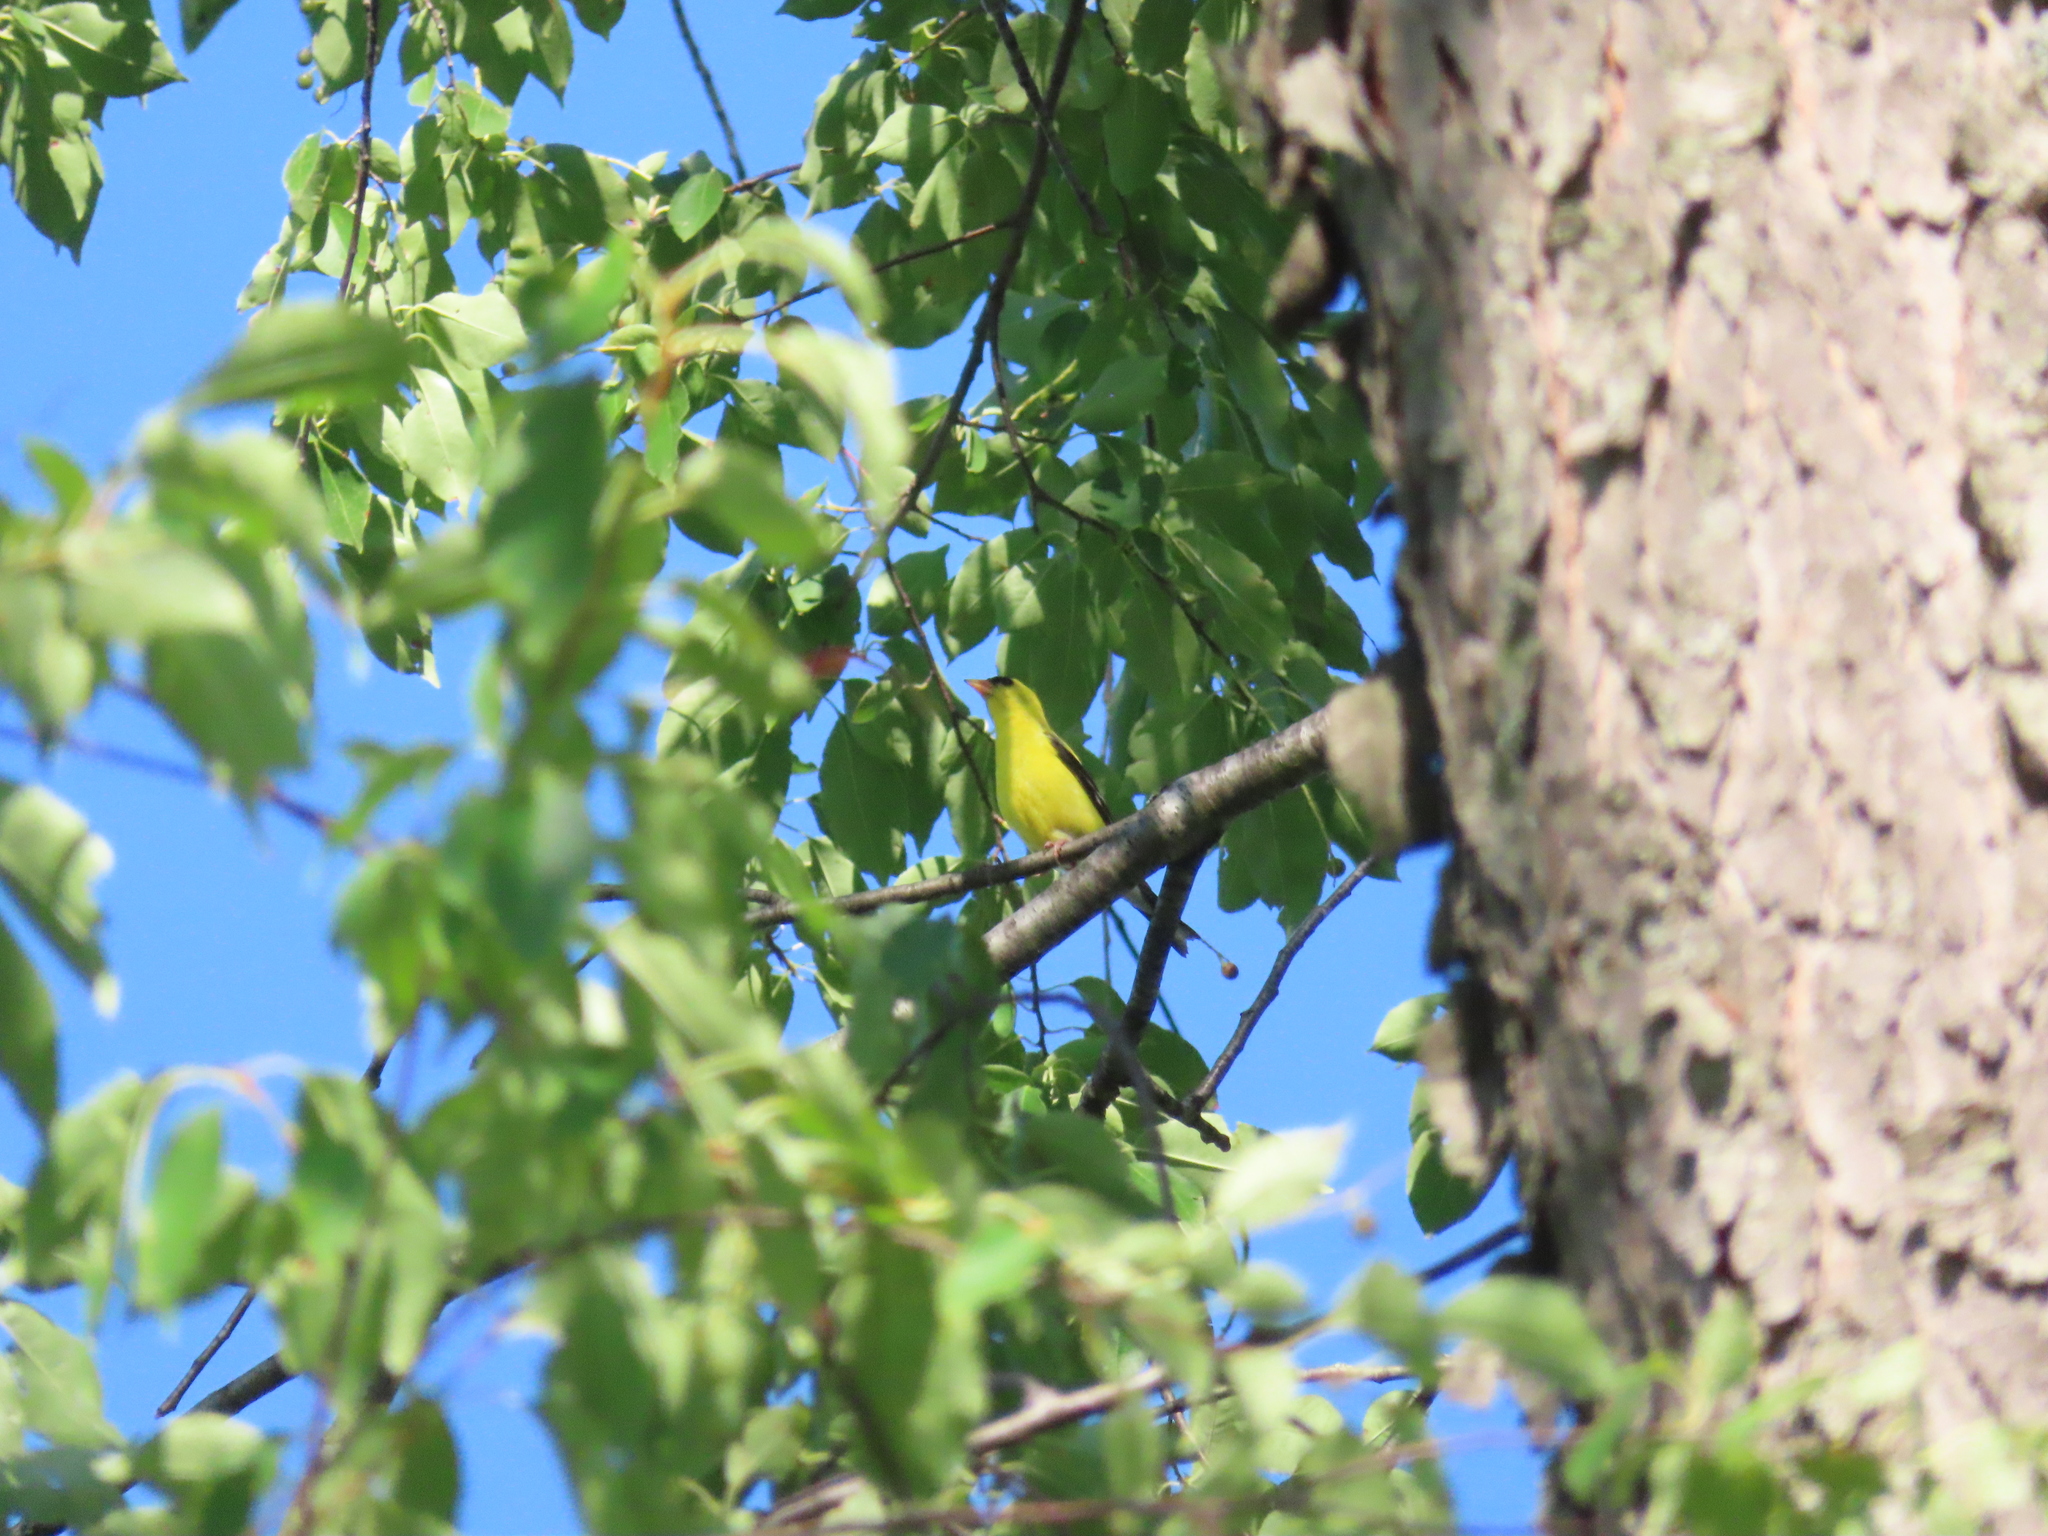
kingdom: Animalia
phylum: Chordata
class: Aves
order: Passeriformes
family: Fringillidae
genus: Spinus
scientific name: Spinus tristis
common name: American goldfinch
